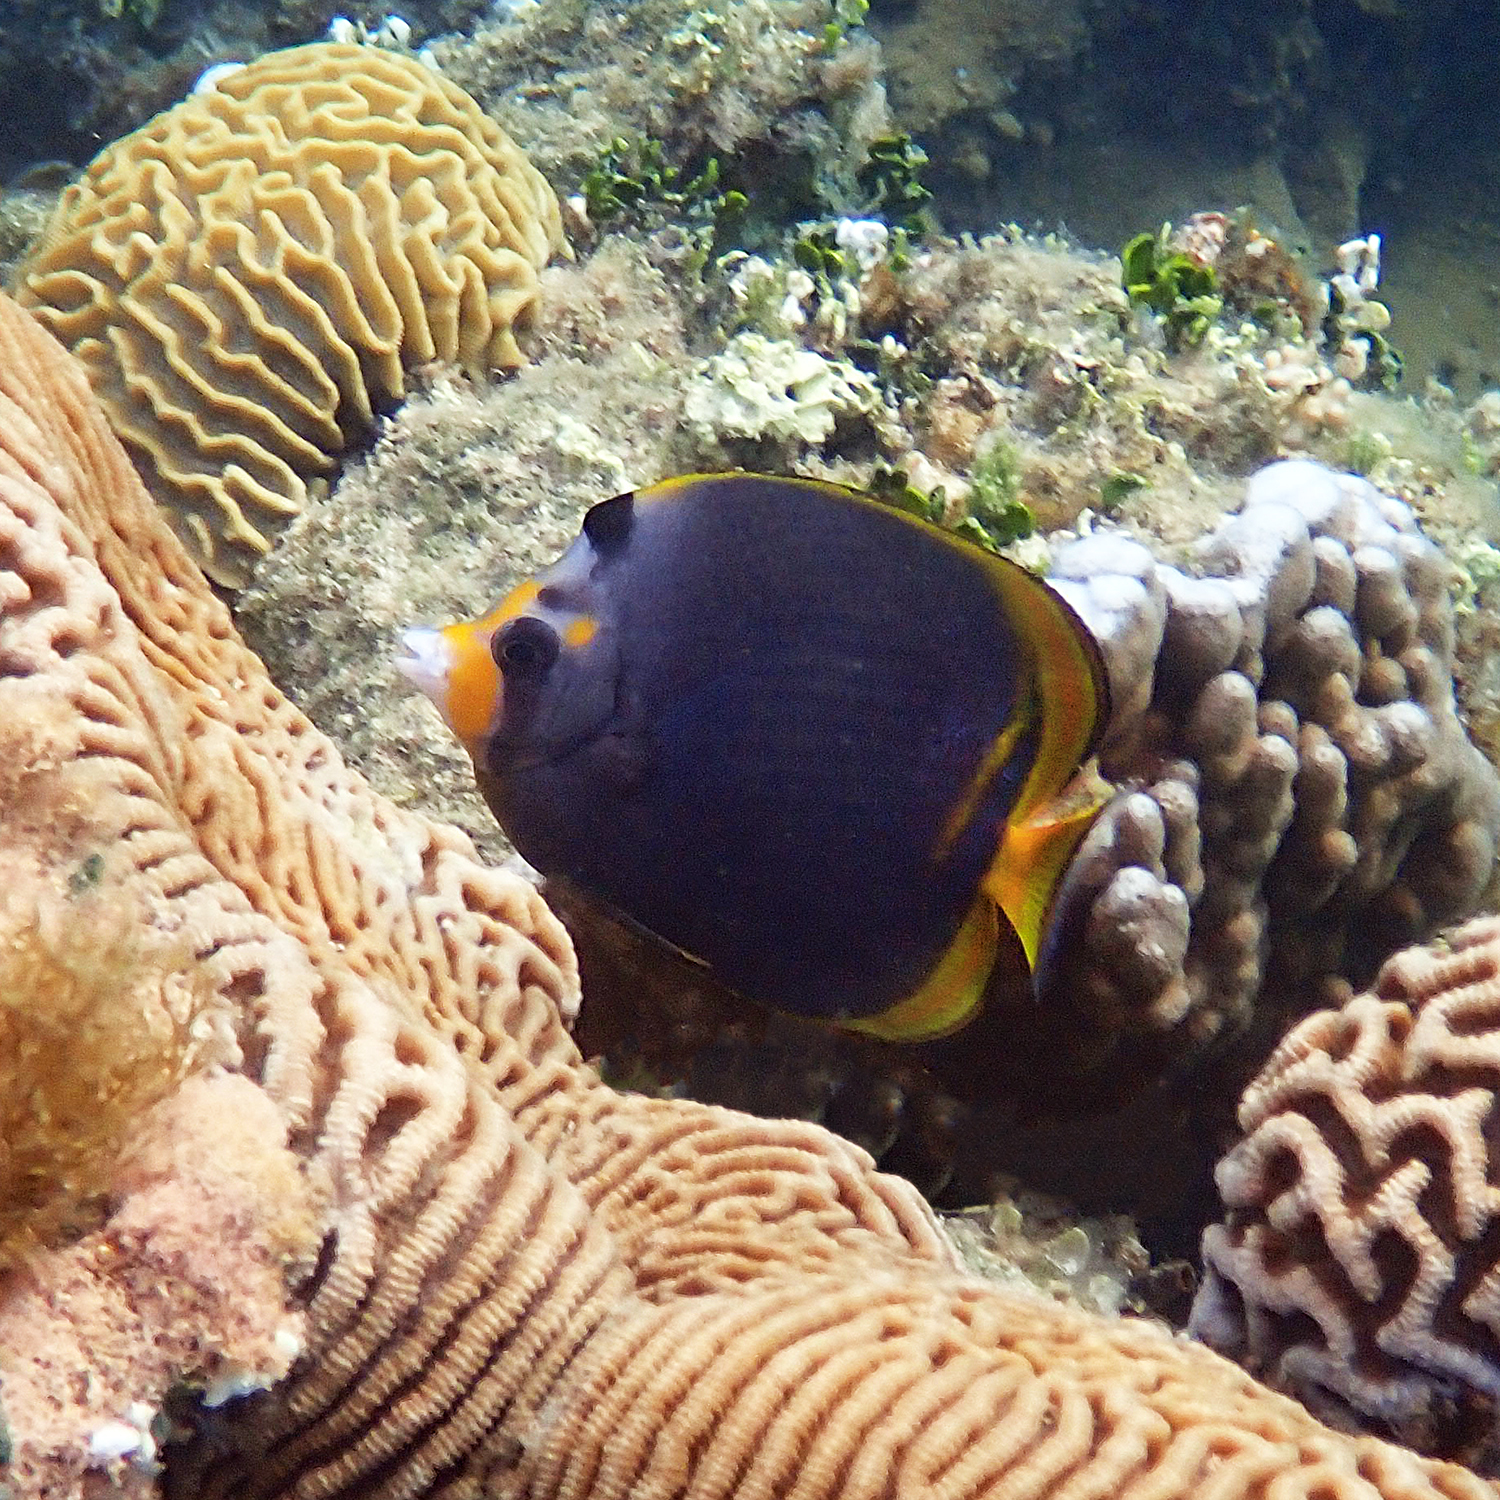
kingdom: Animalia
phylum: Chordata
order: Perciformes
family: Chaetodontidae
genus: Chaetodon
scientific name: Chaetodon flavirostris
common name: Black butterflyfish
